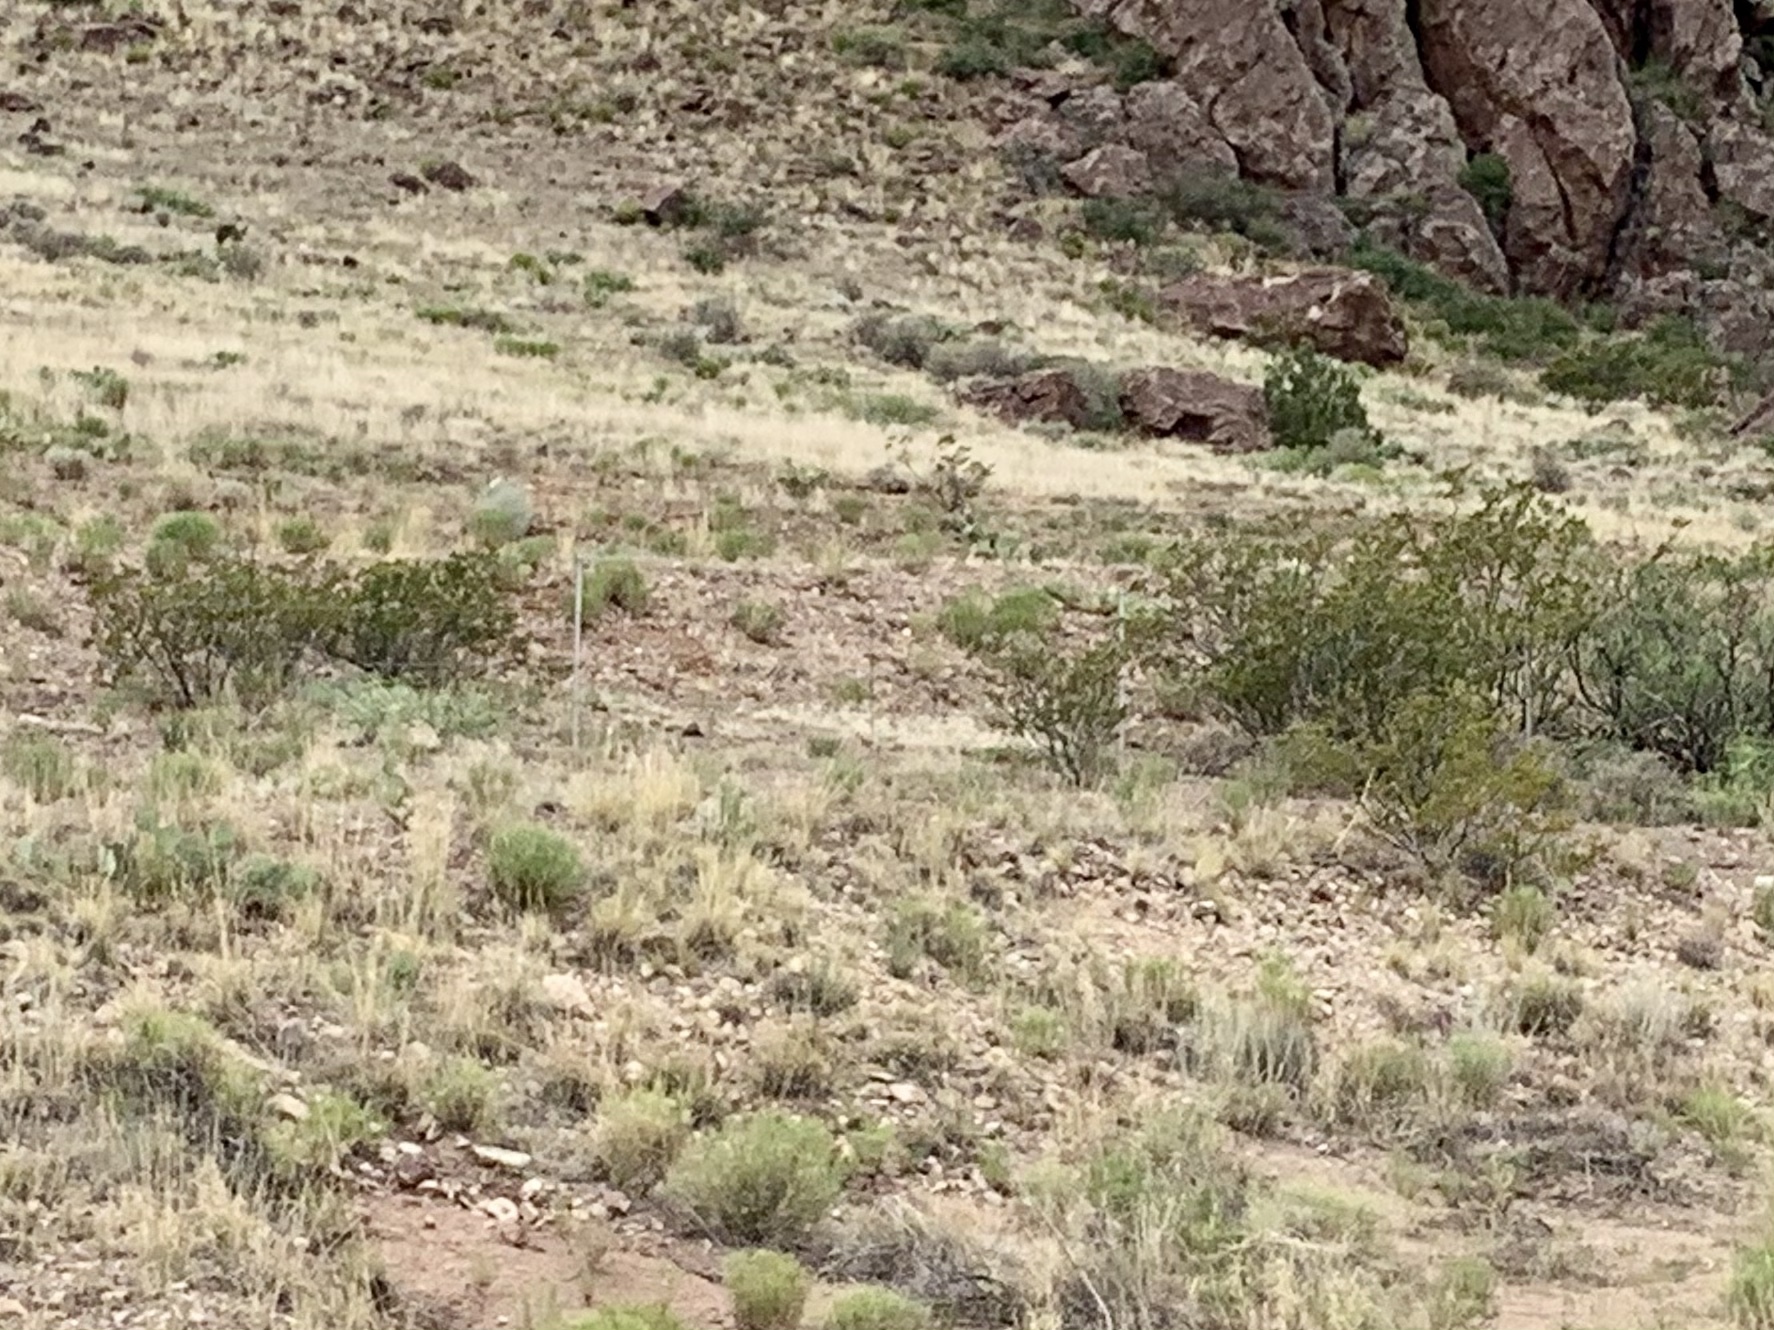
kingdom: Plantae
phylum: Tracheophyta
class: Magnoliopsida
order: Zygophyllales
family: Zygophyllaceae
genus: Larrea
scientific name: Larrea tridentata
